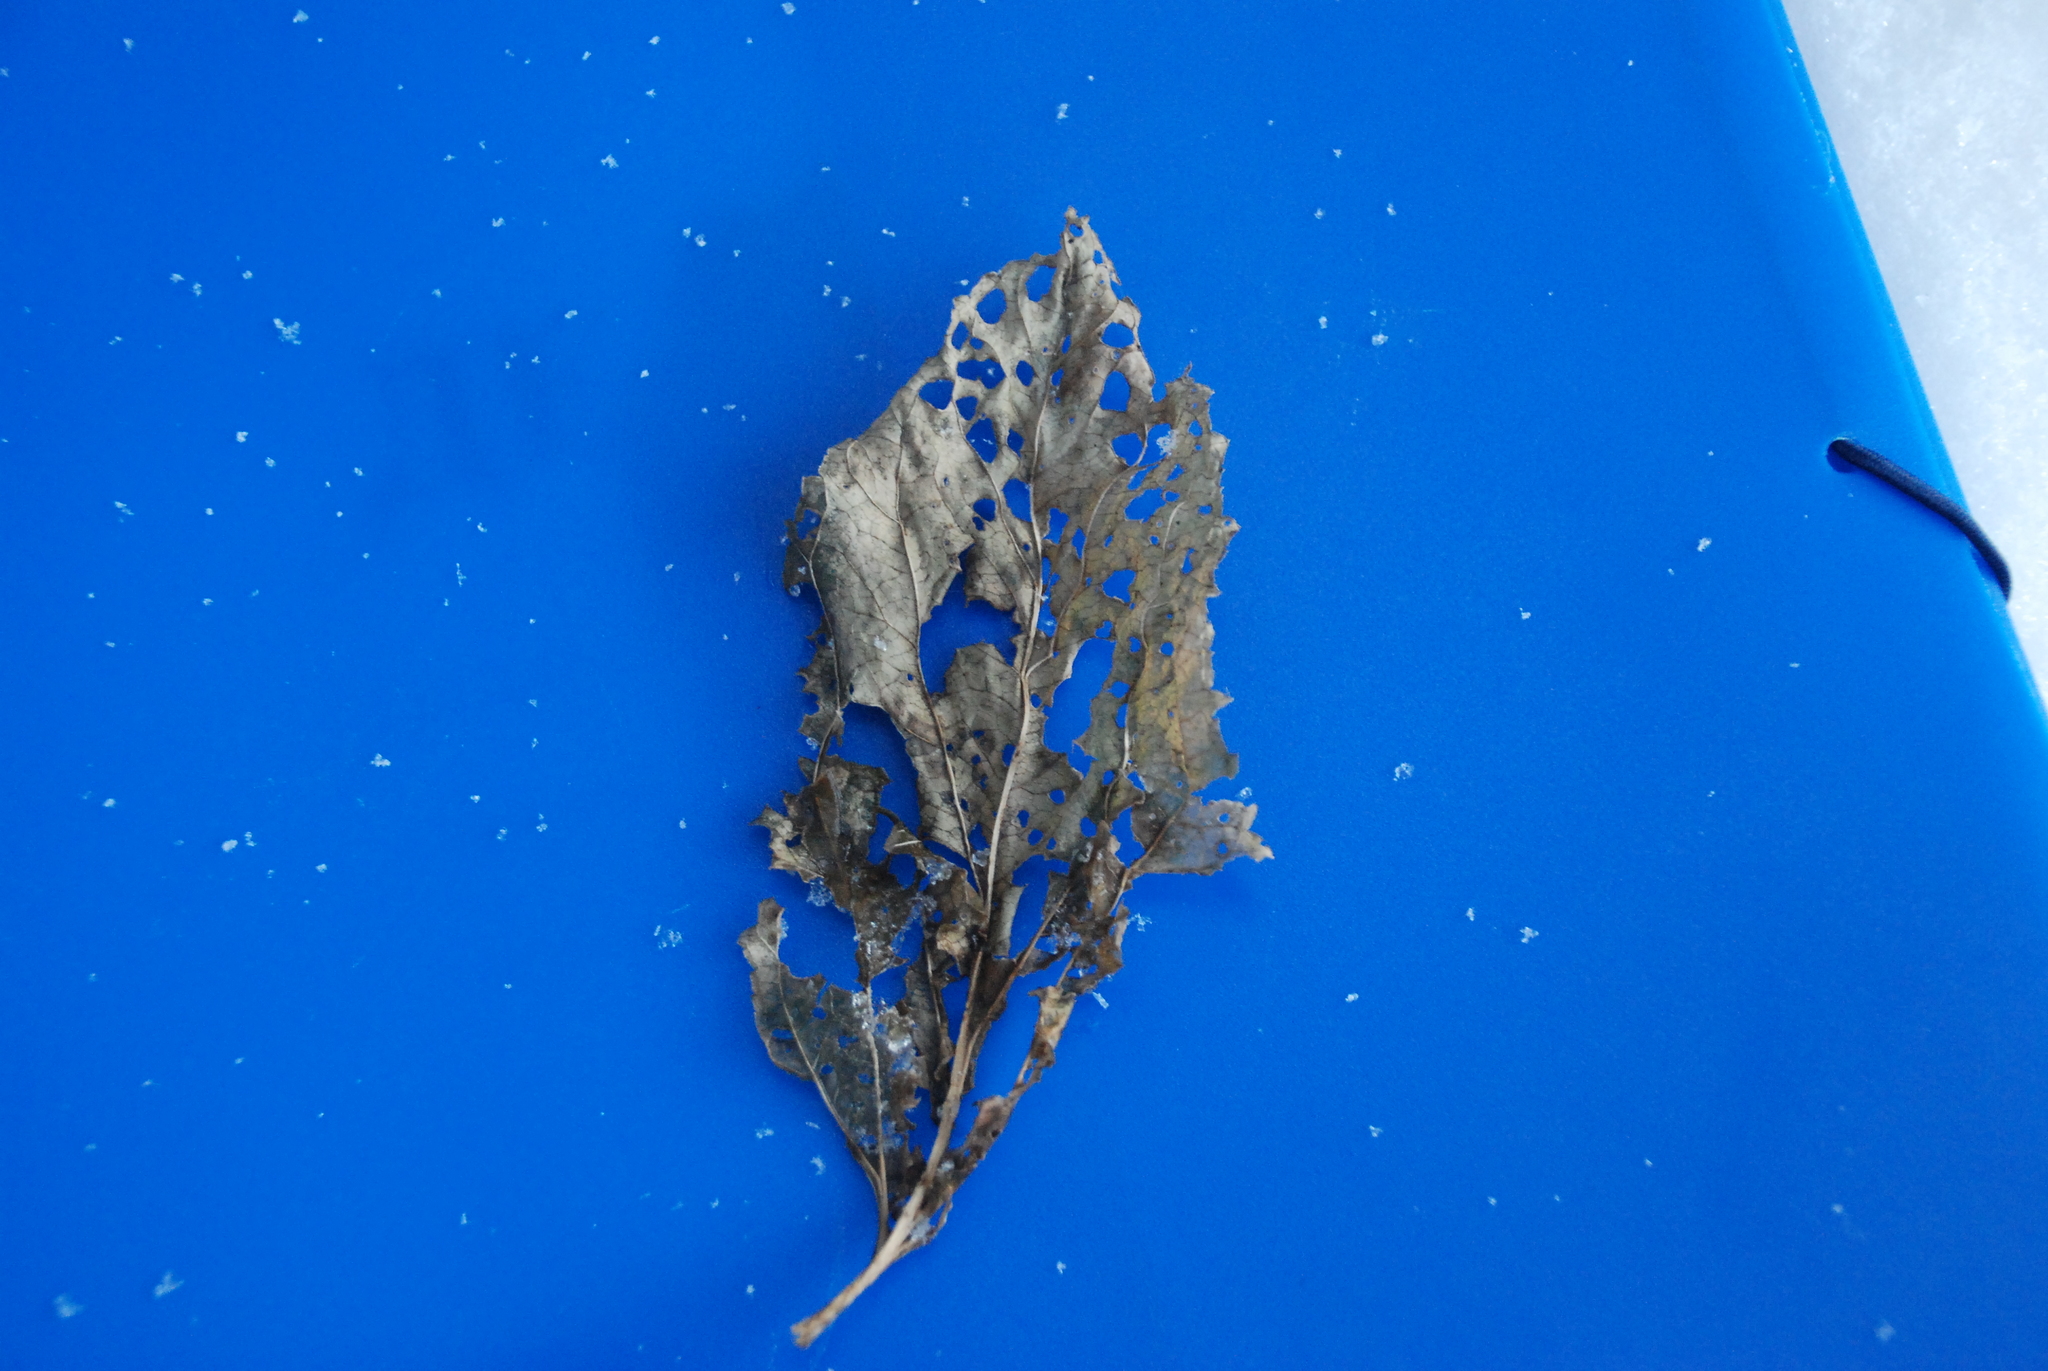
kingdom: Plantae
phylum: Tracheophyta
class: Magnoliopsida
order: Lamiales
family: Scrophulariaceae
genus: Scrophularia
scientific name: Scrophularia nodosa
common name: Common figwort
